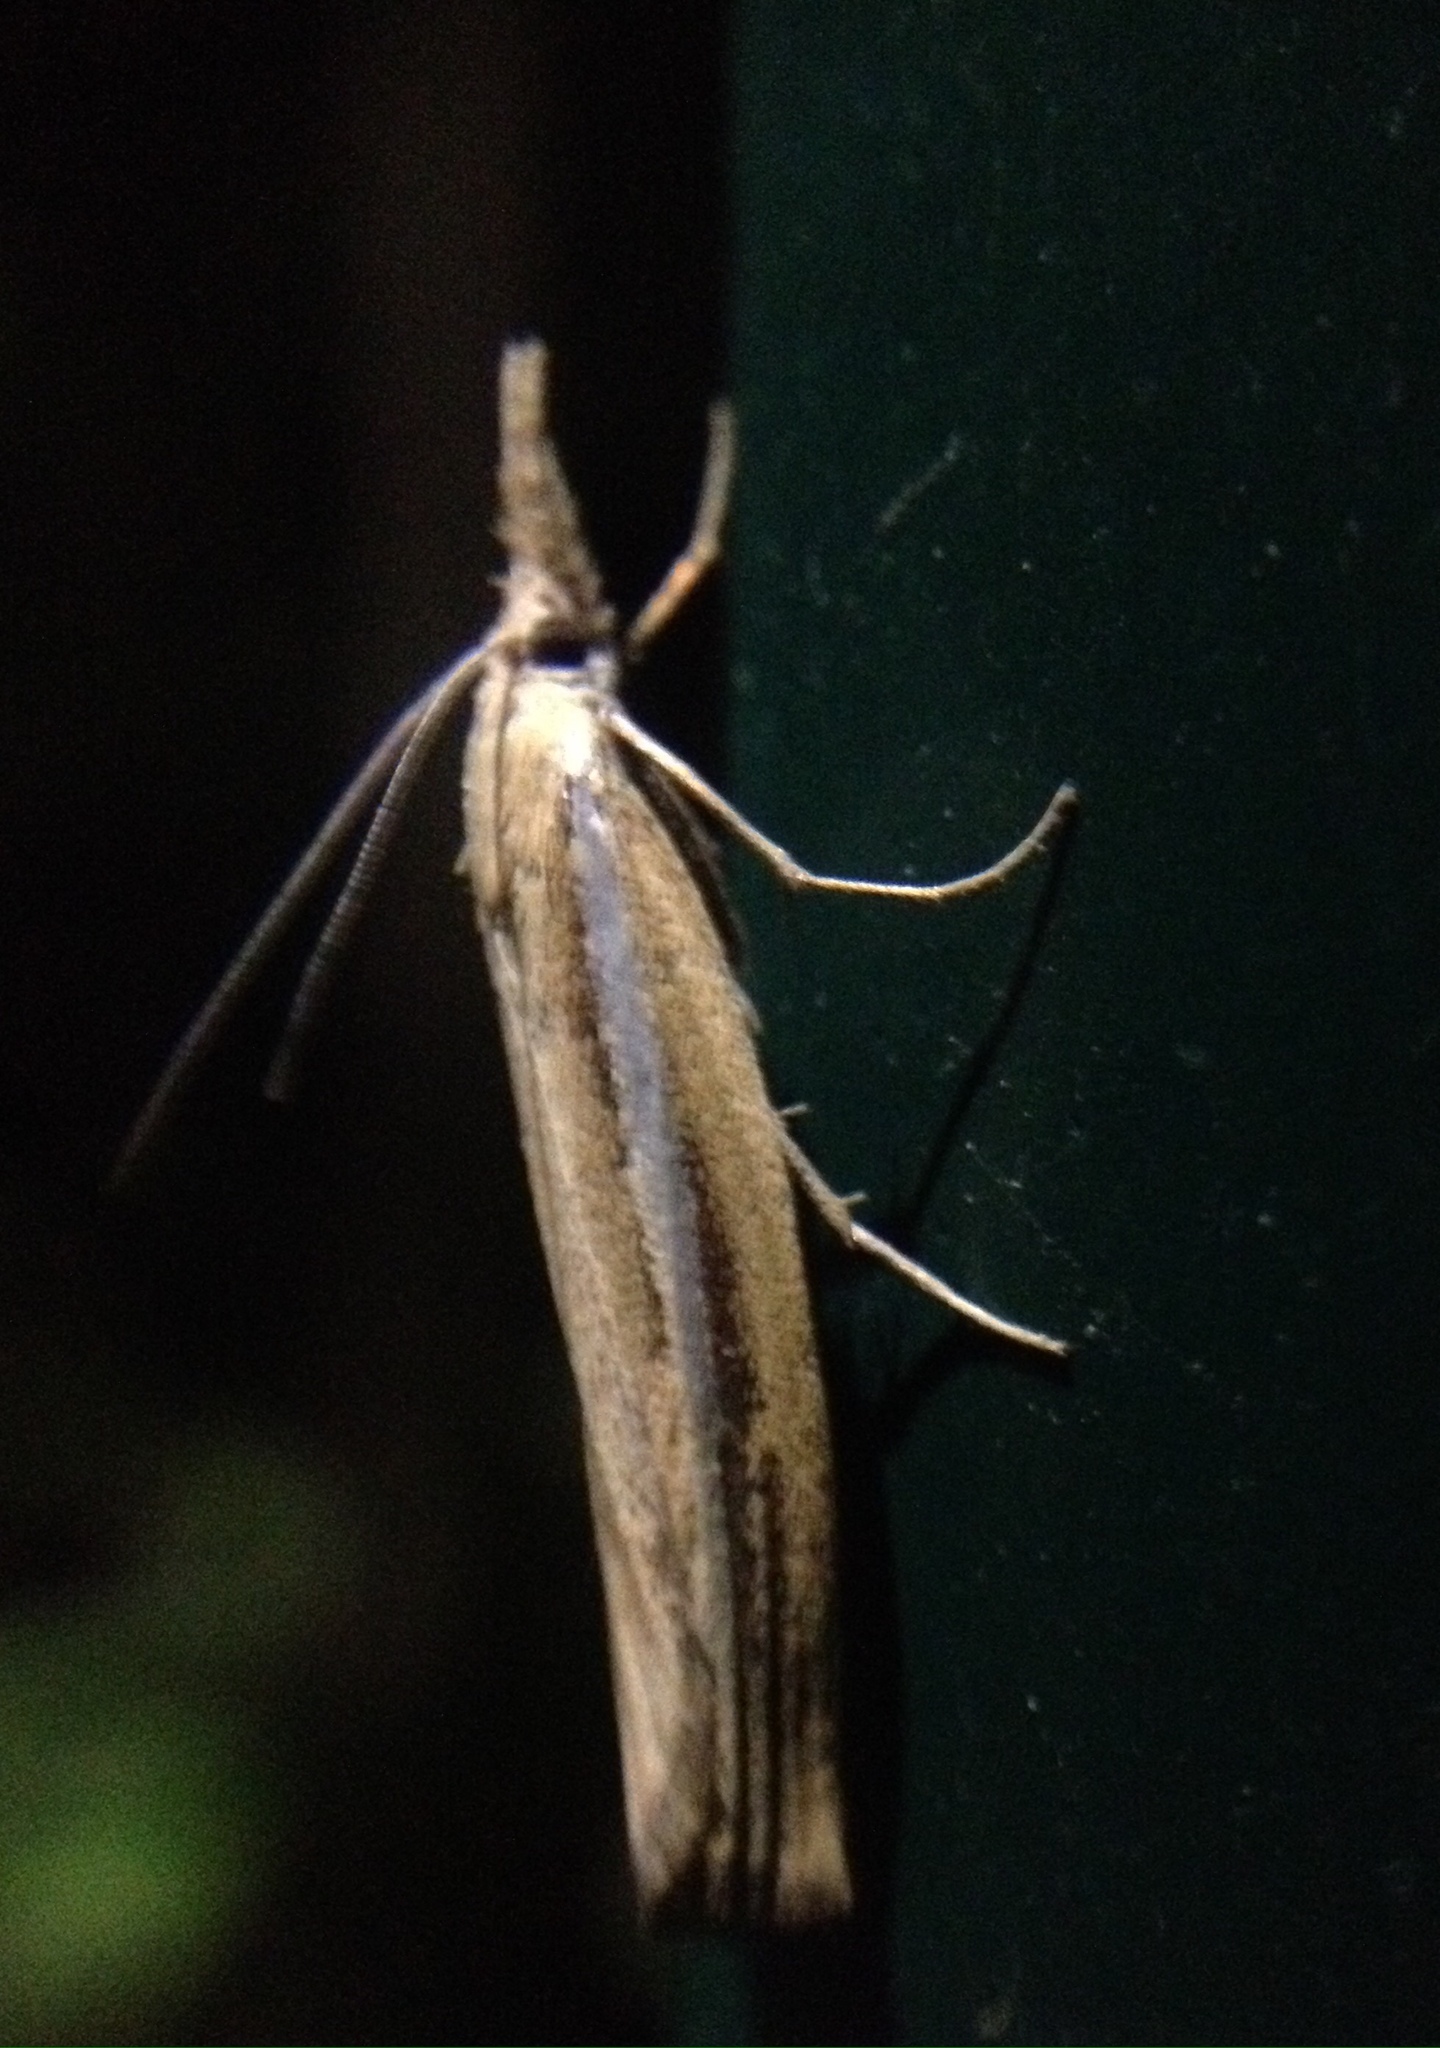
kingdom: Animalia
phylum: Arthropoda
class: Insecta
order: Lepidoptera
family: Crambidae
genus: Agriphila
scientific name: Agriphila tristellus
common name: Common grass-veneer
